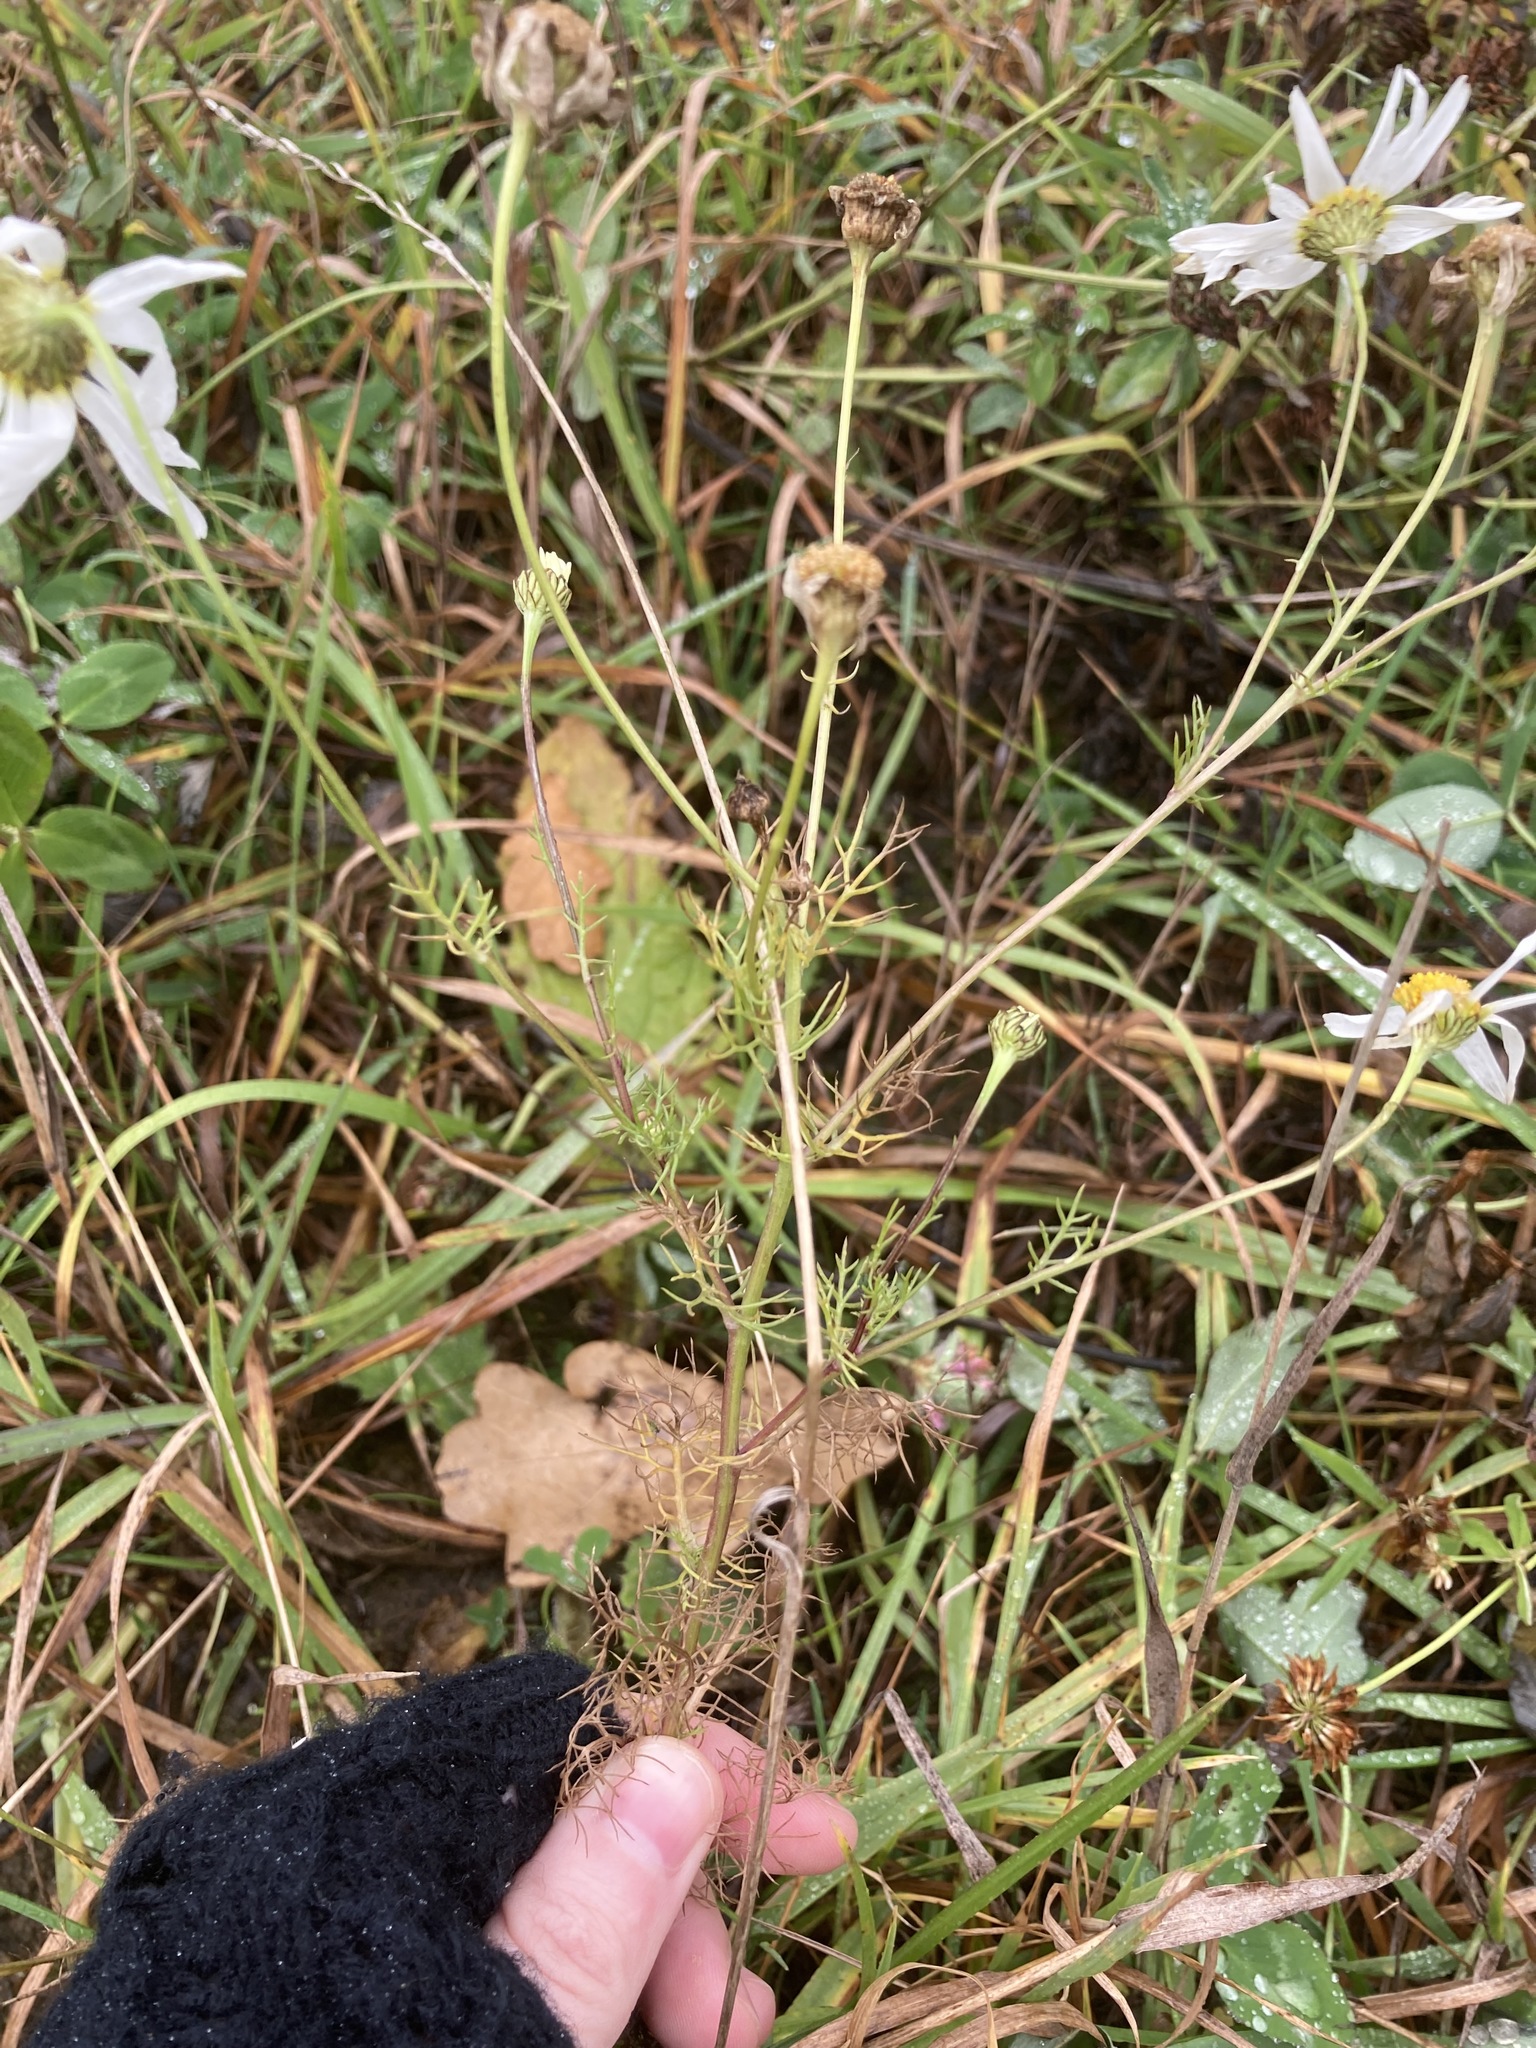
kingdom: Plantae
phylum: Tracheophyta
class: Magnoliopsida
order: Asterales
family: Asteraceae
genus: Tripleurospermum
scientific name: Tripleurospermum inodorum
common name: Scentless mayweed
